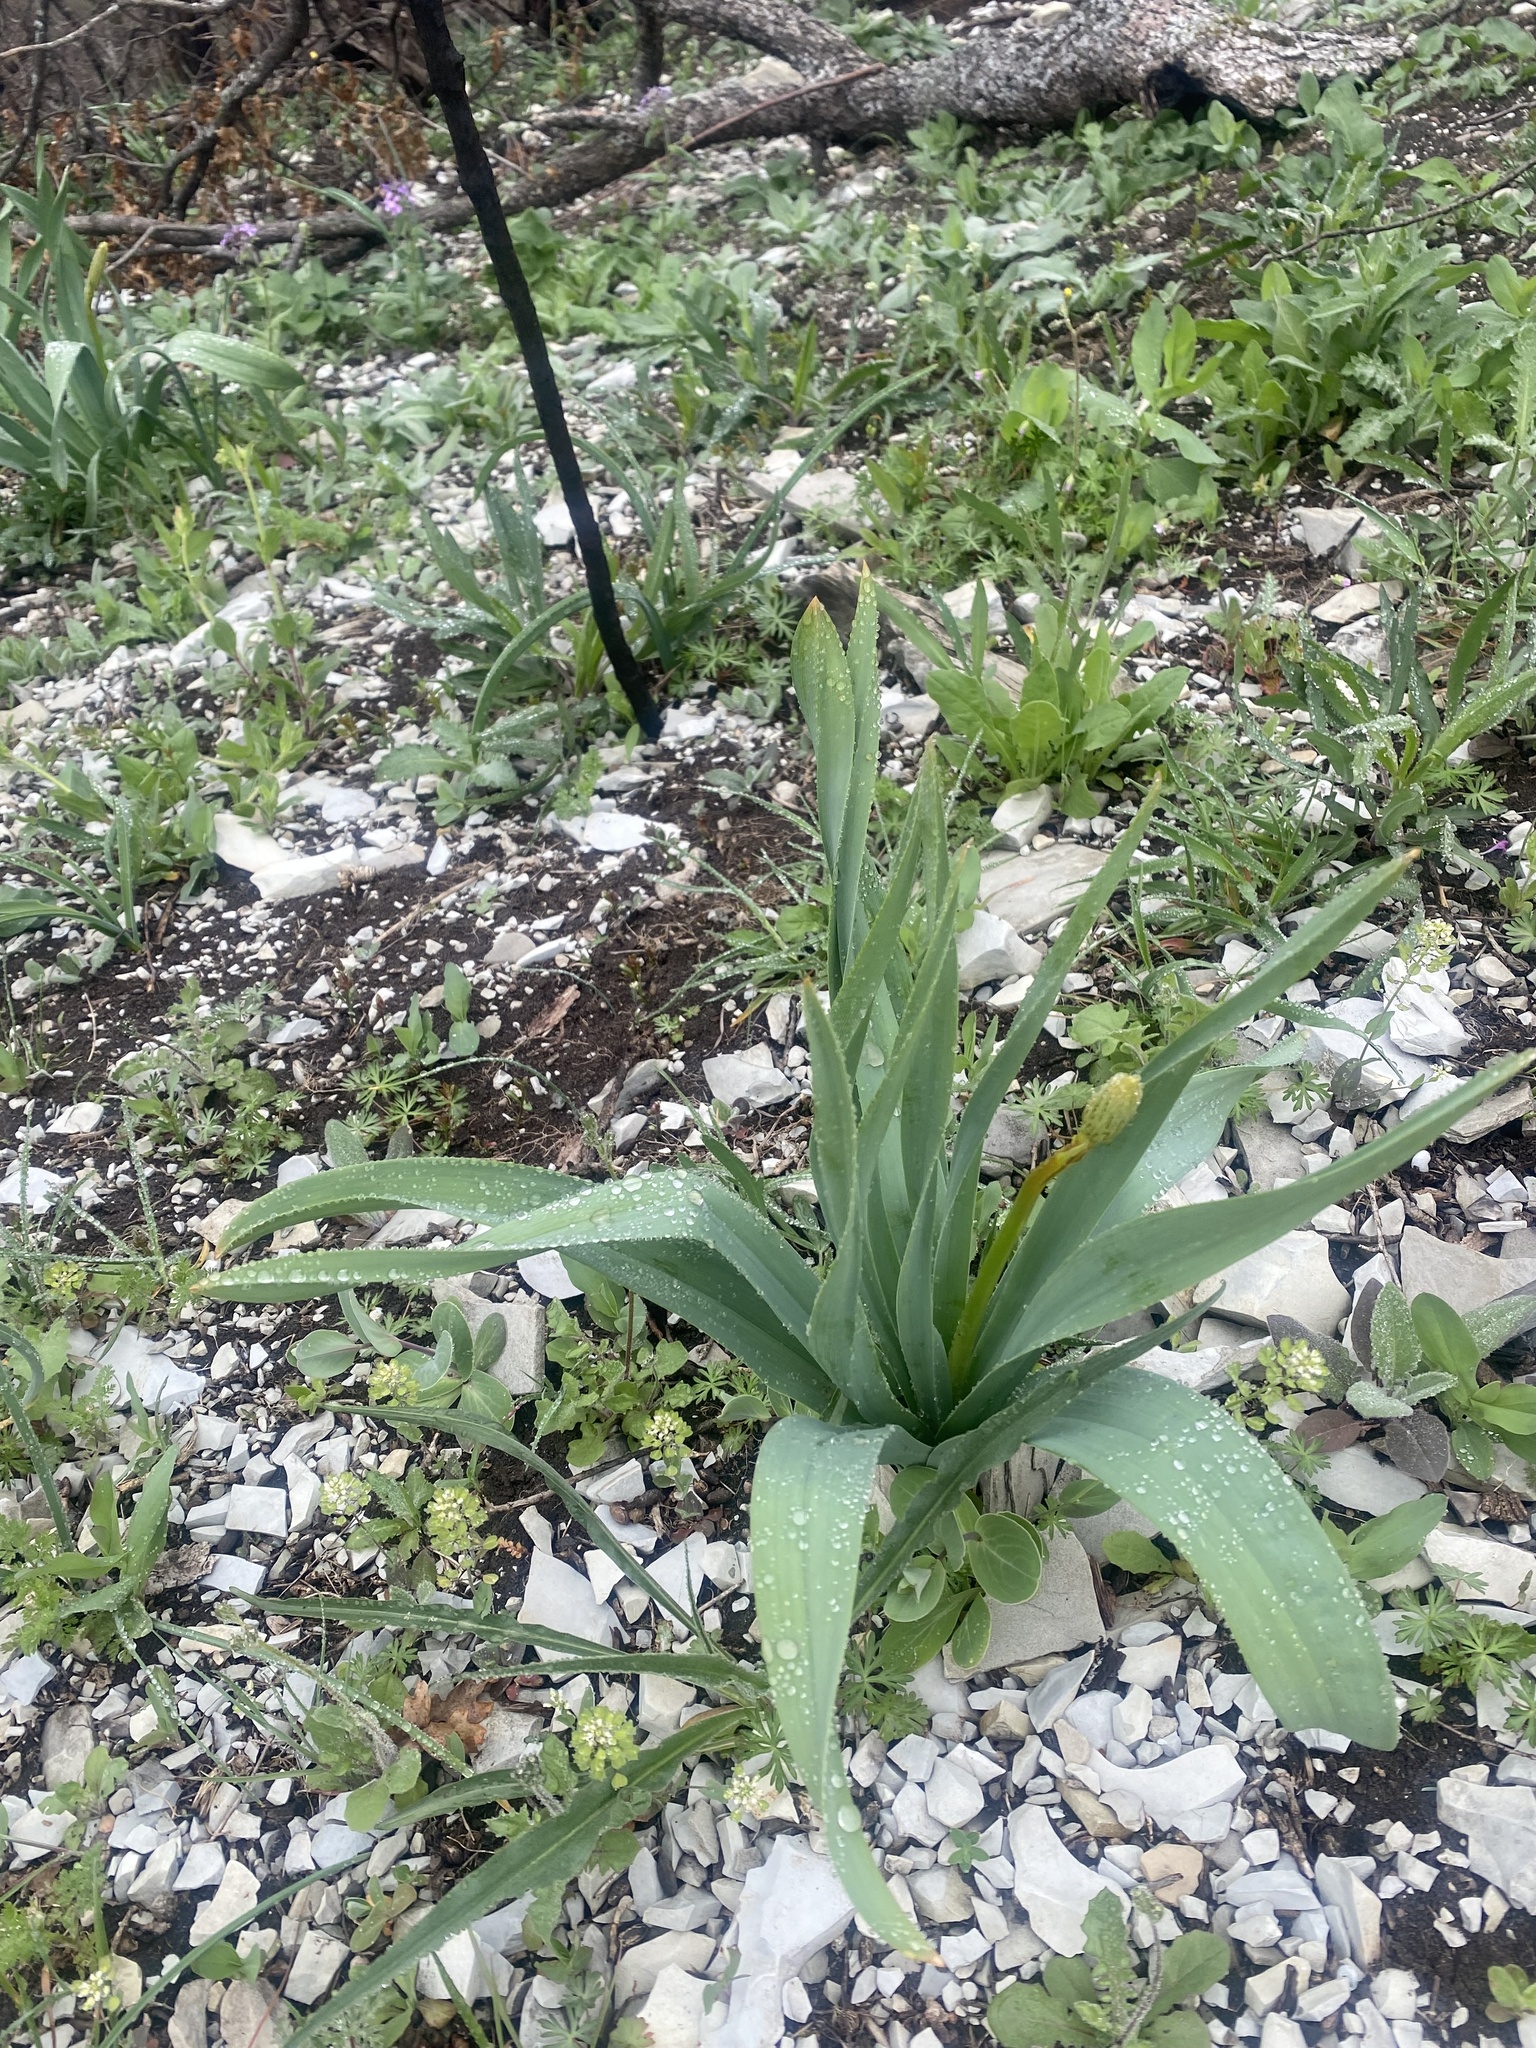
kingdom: Plantae
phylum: Tracheophyta
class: Liliopsida
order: Asparagales
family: Asphodelaceae
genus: Eremurus
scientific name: Eremurus spectabilis
